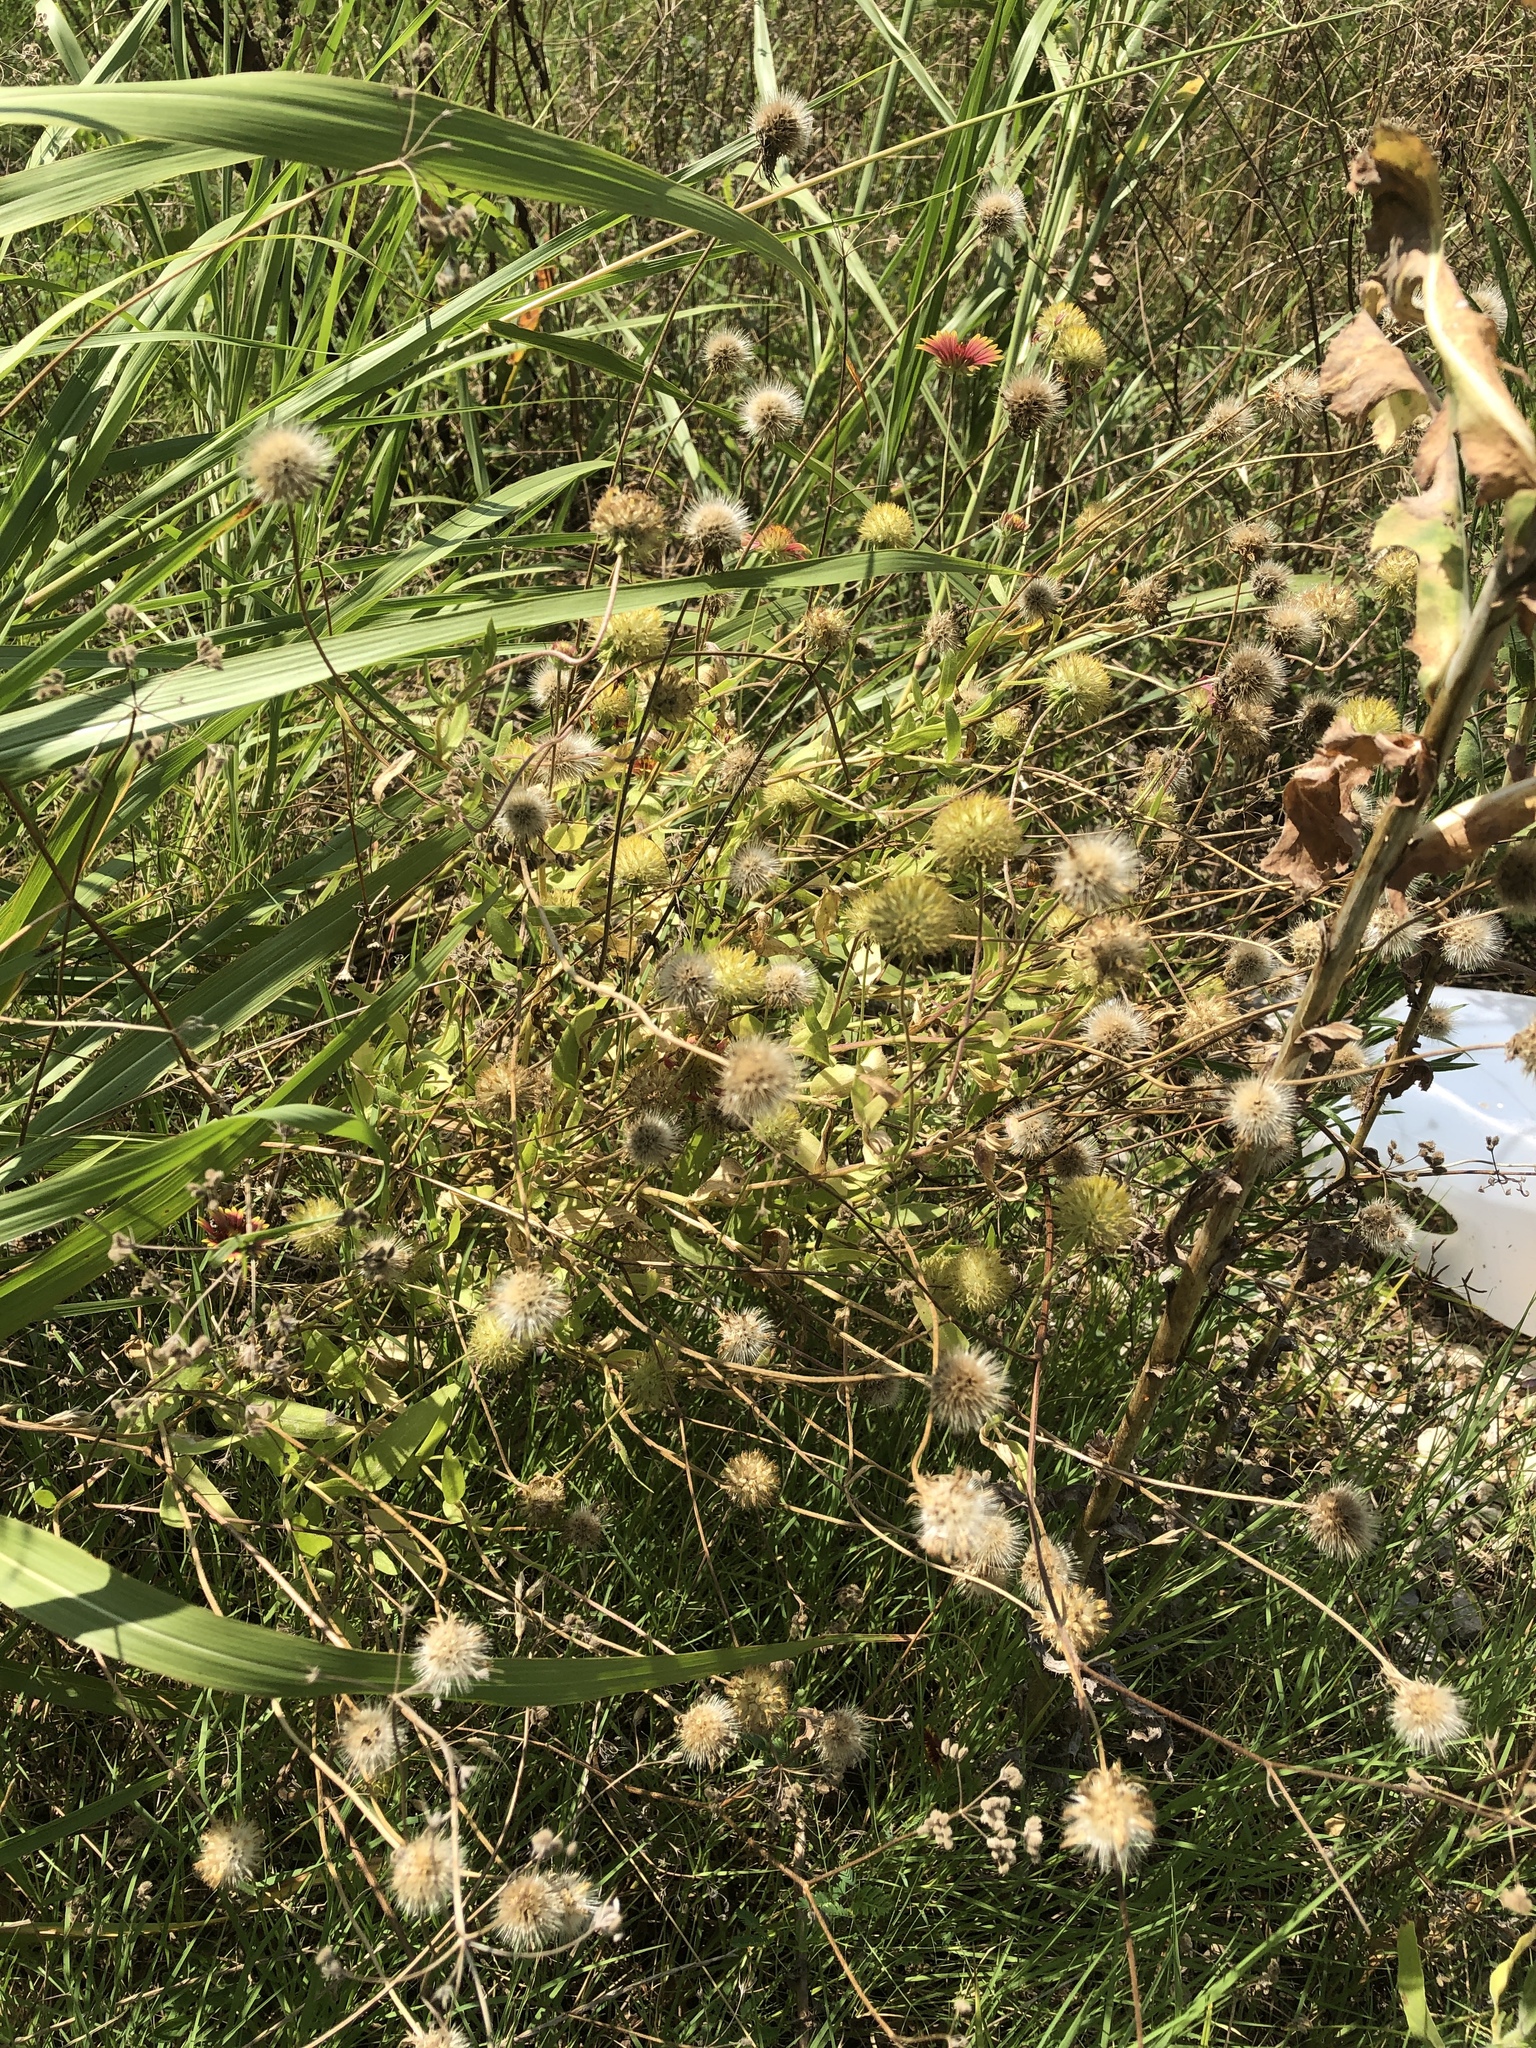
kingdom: Plantae
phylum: Tracheophyta
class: Magnoliopsida
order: Asterales
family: Asteraceae
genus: Gaillardia
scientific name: Gaillardia pulchella
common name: Firewheel
